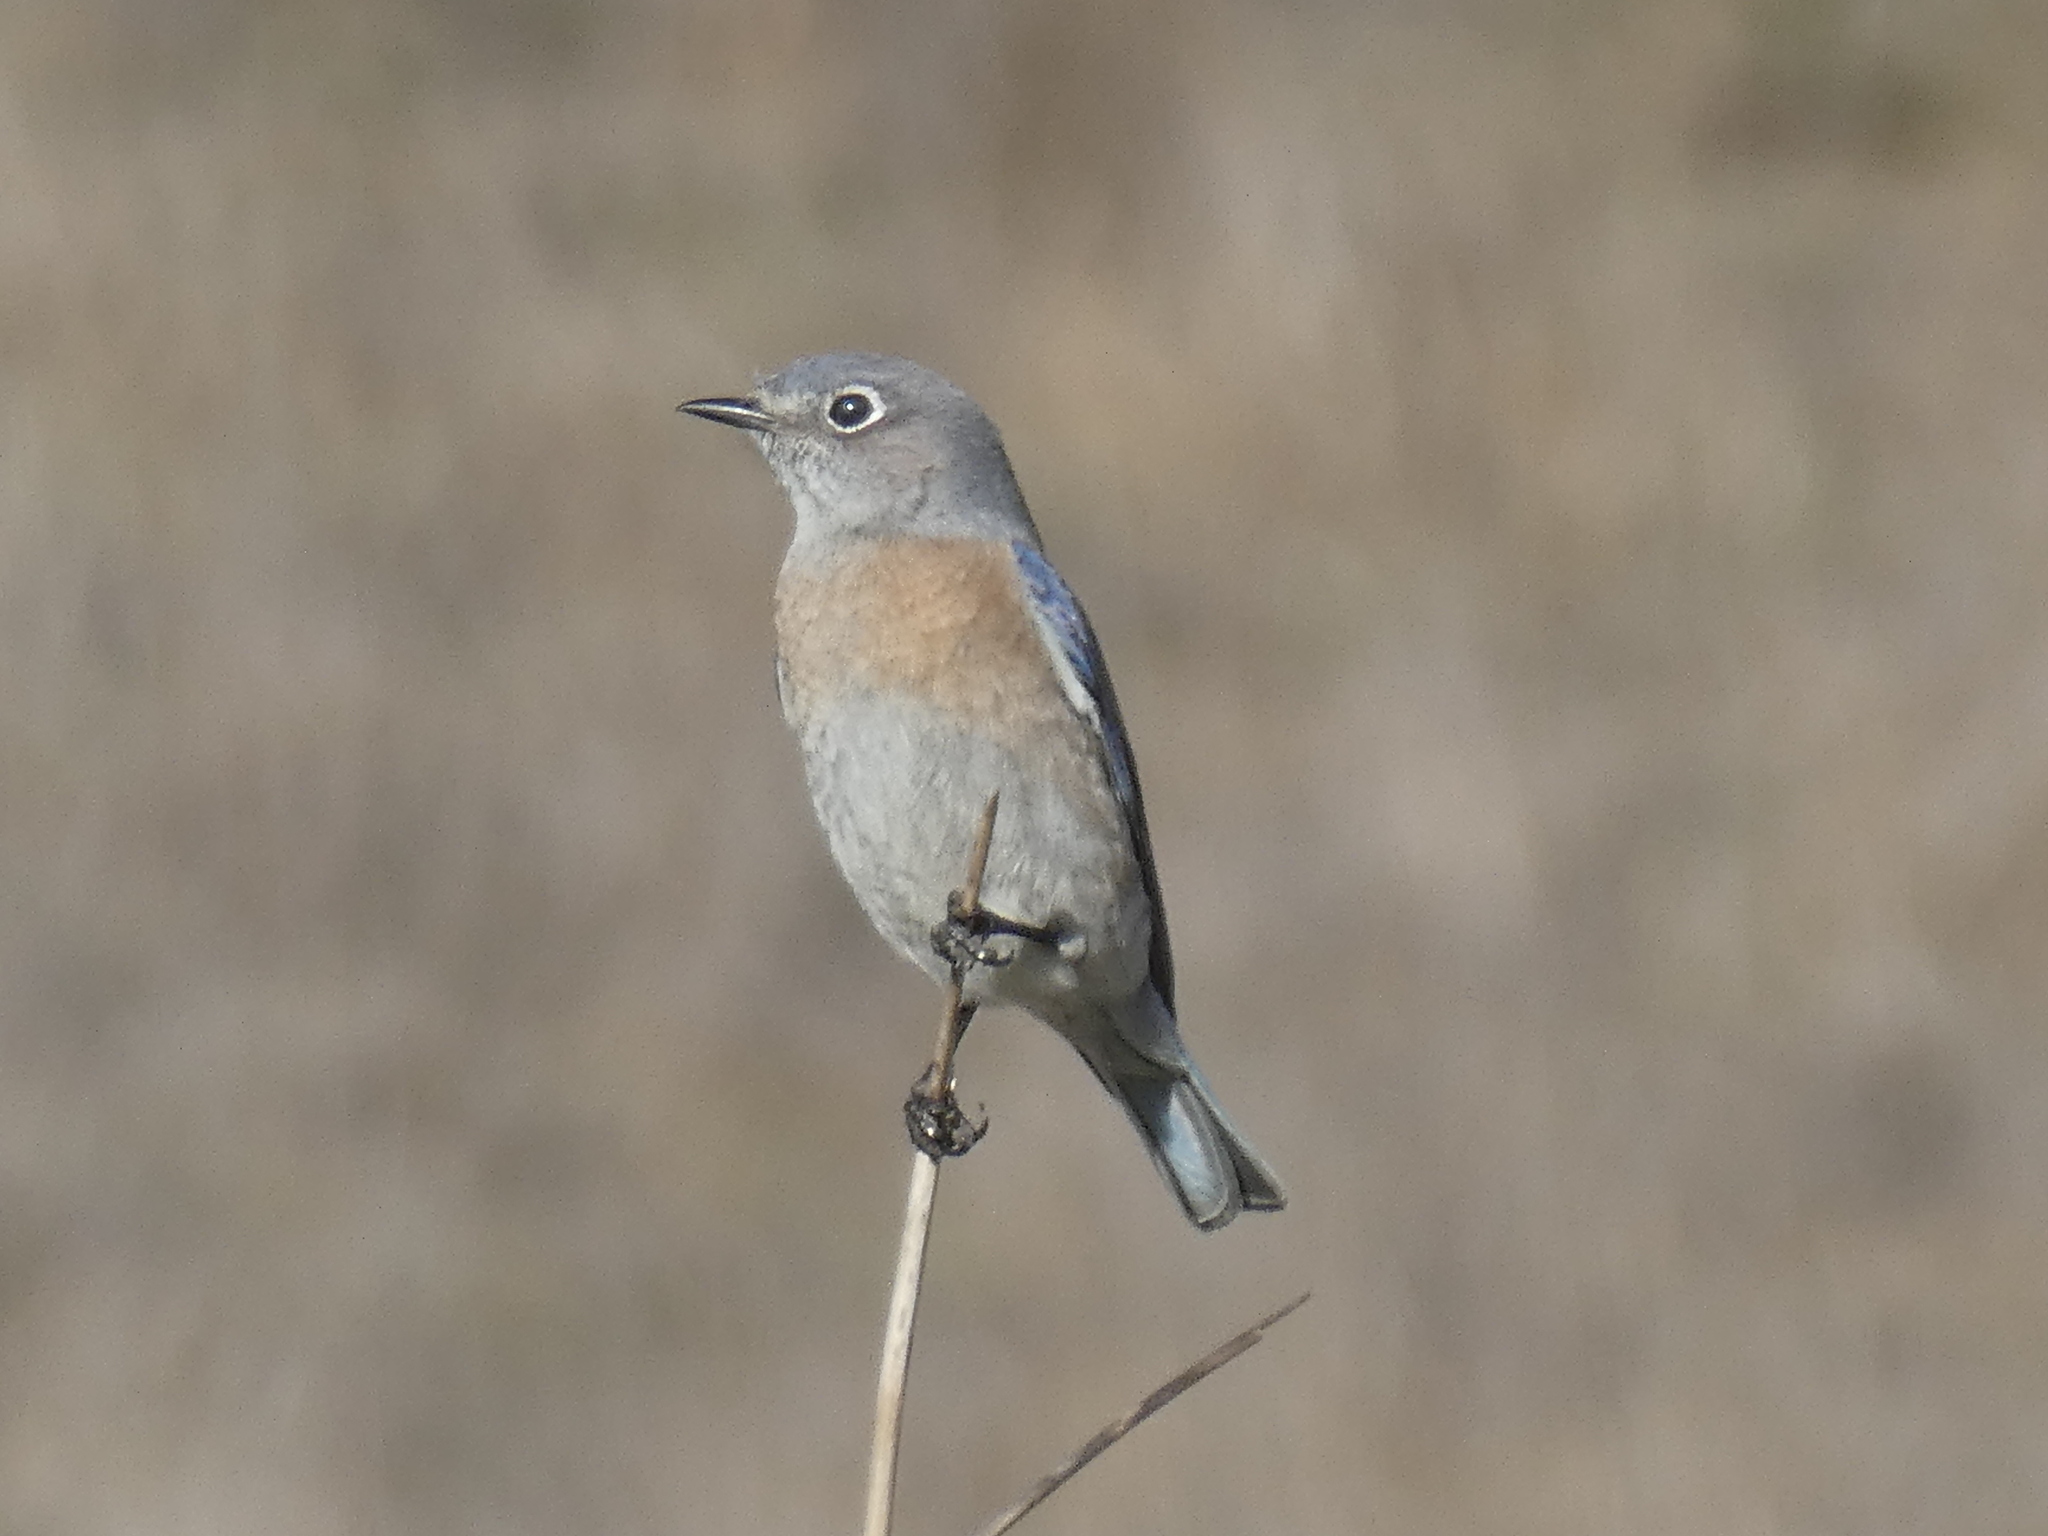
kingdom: Animalia
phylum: Chordata
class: Aves
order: Passeriformes
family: Turdidae
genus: Sialia
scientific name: Sialia mexicana
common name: Western bluebird
